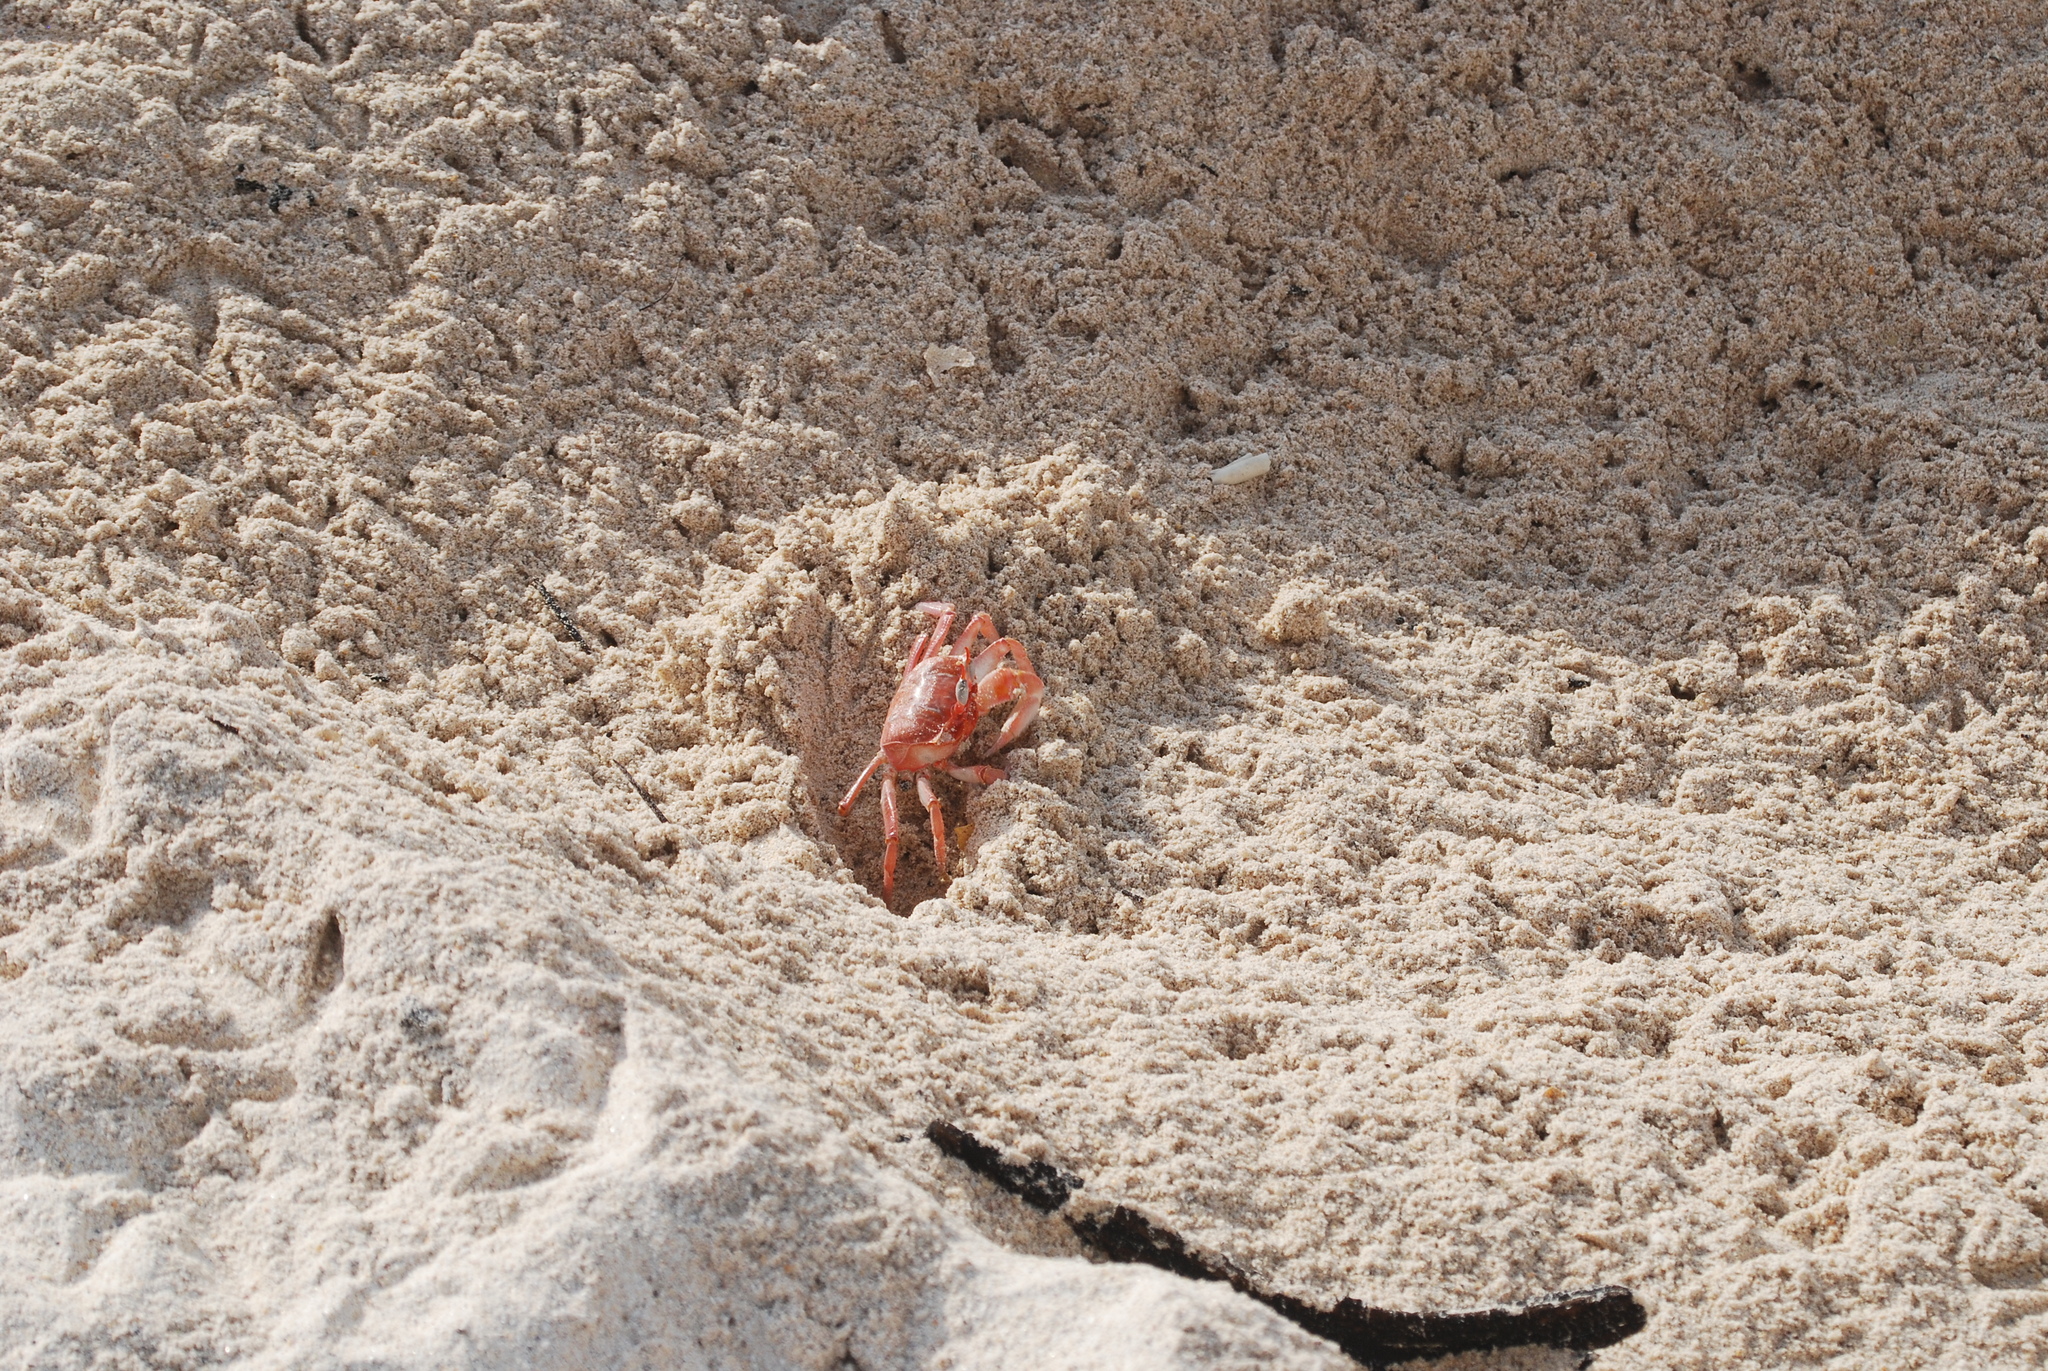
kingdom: Animalia
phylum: Arthropoda
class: Malacostraca
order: Decapoda
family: Ocypodidae
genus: Ocypode
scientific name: Ocypode gaudichaudii
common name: Pacific ghost crab
